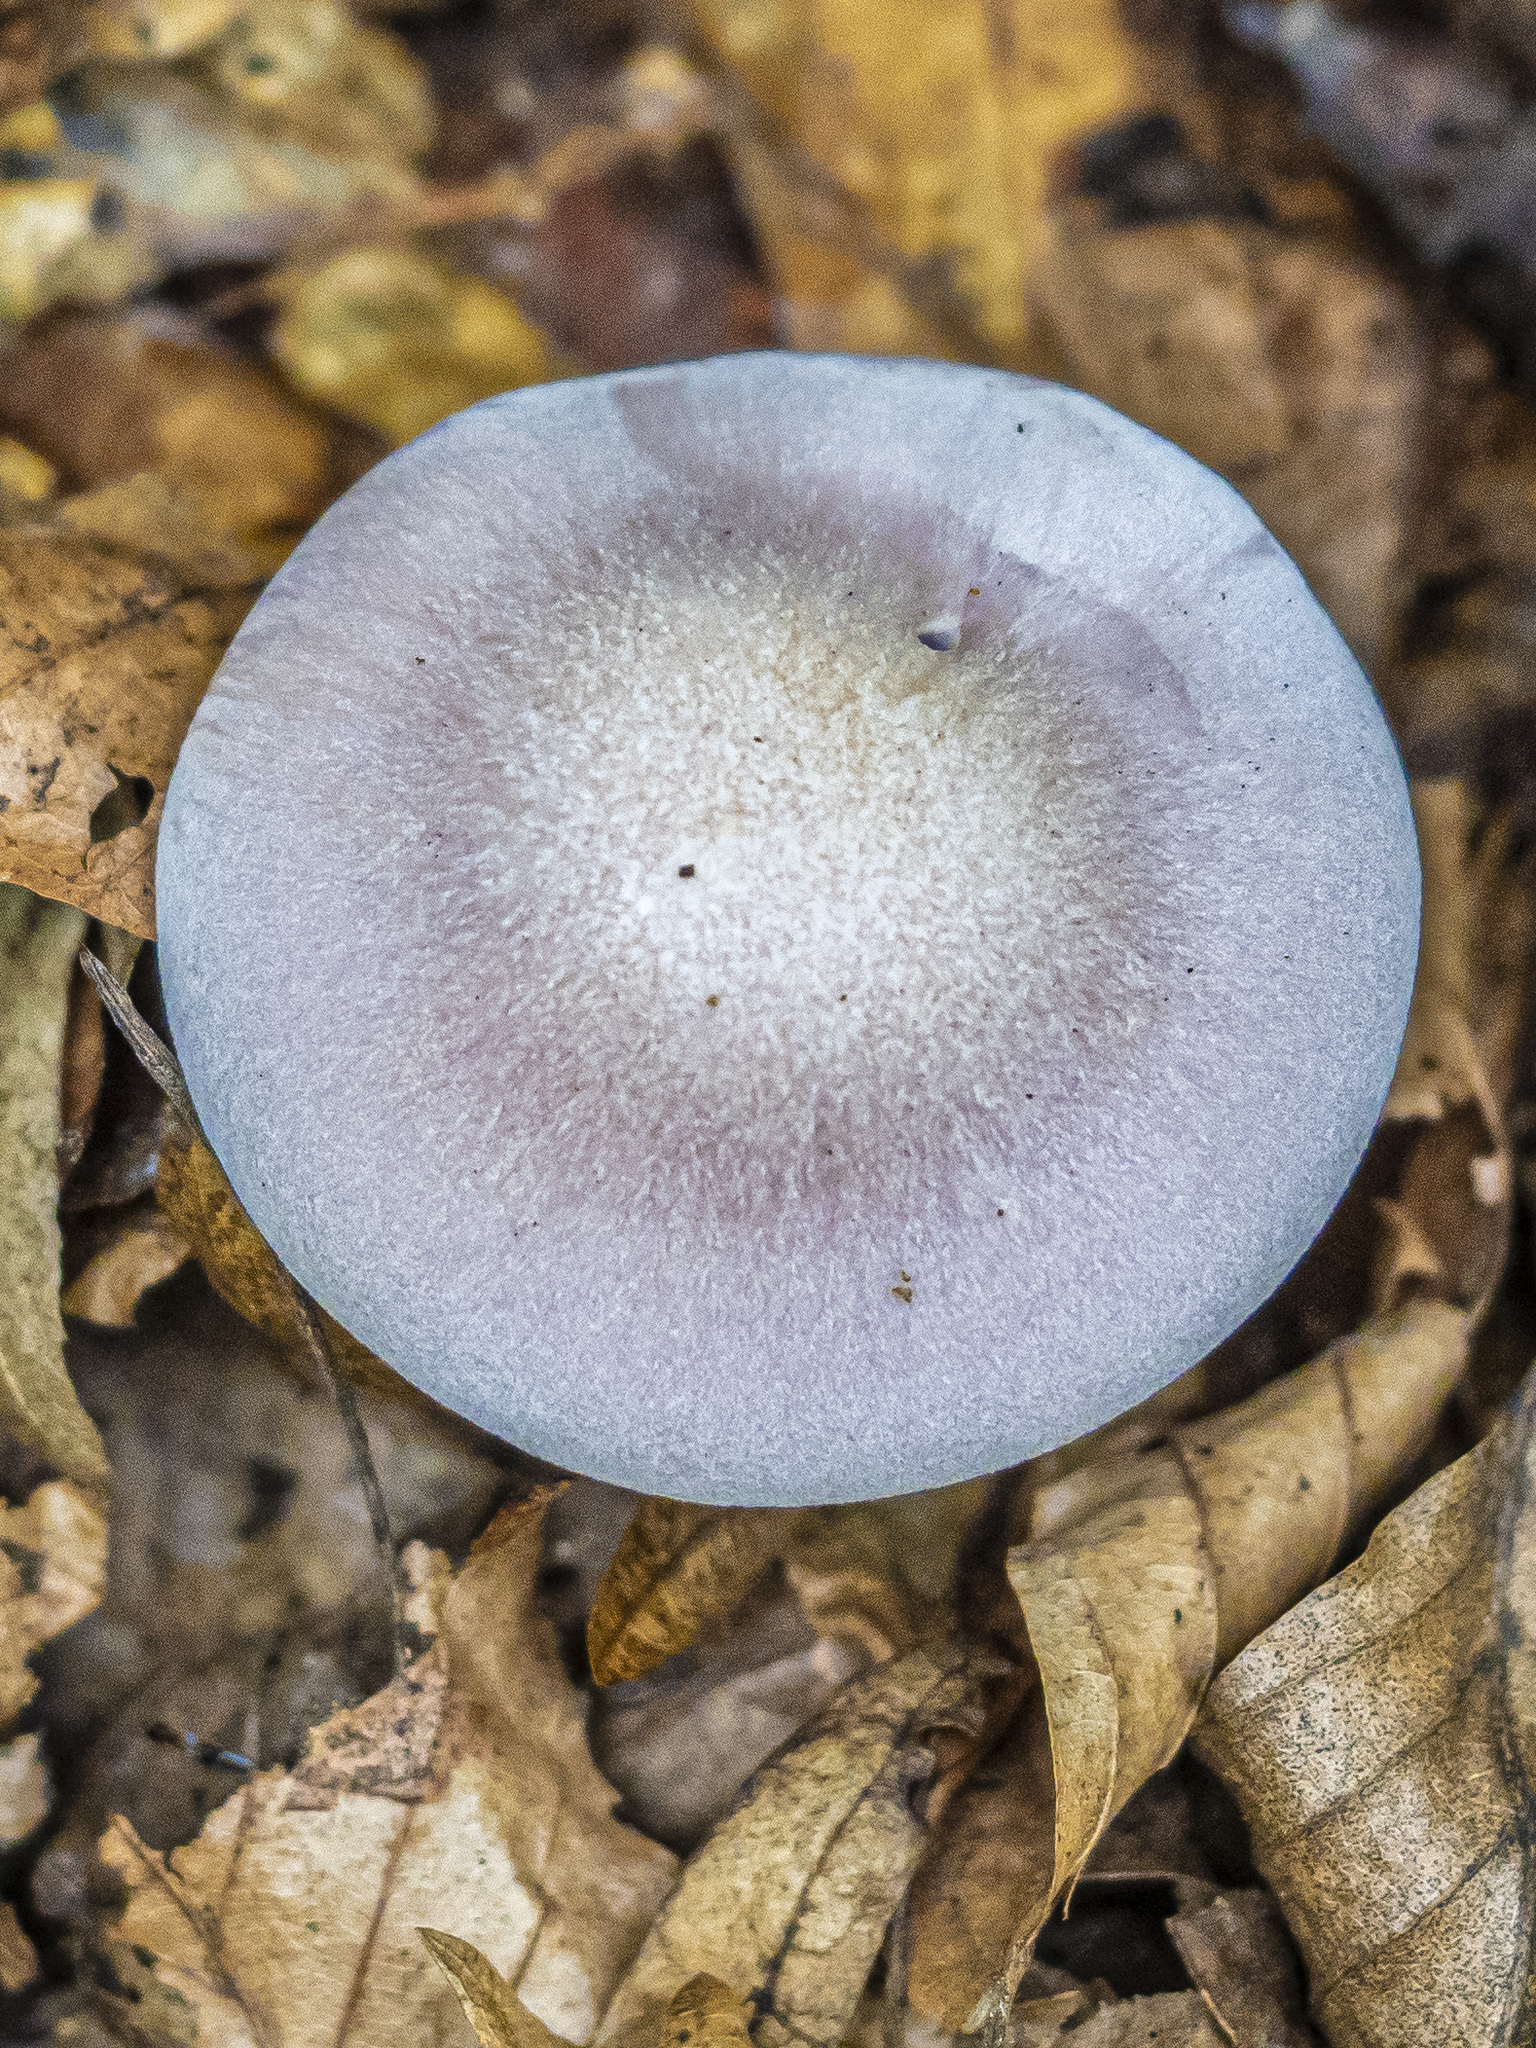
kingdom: Fungi
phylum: Basidiomycota
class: Agaricomycetes
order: Agaricales
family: Tricholomataceae
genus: Collybia
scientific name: Collybia
